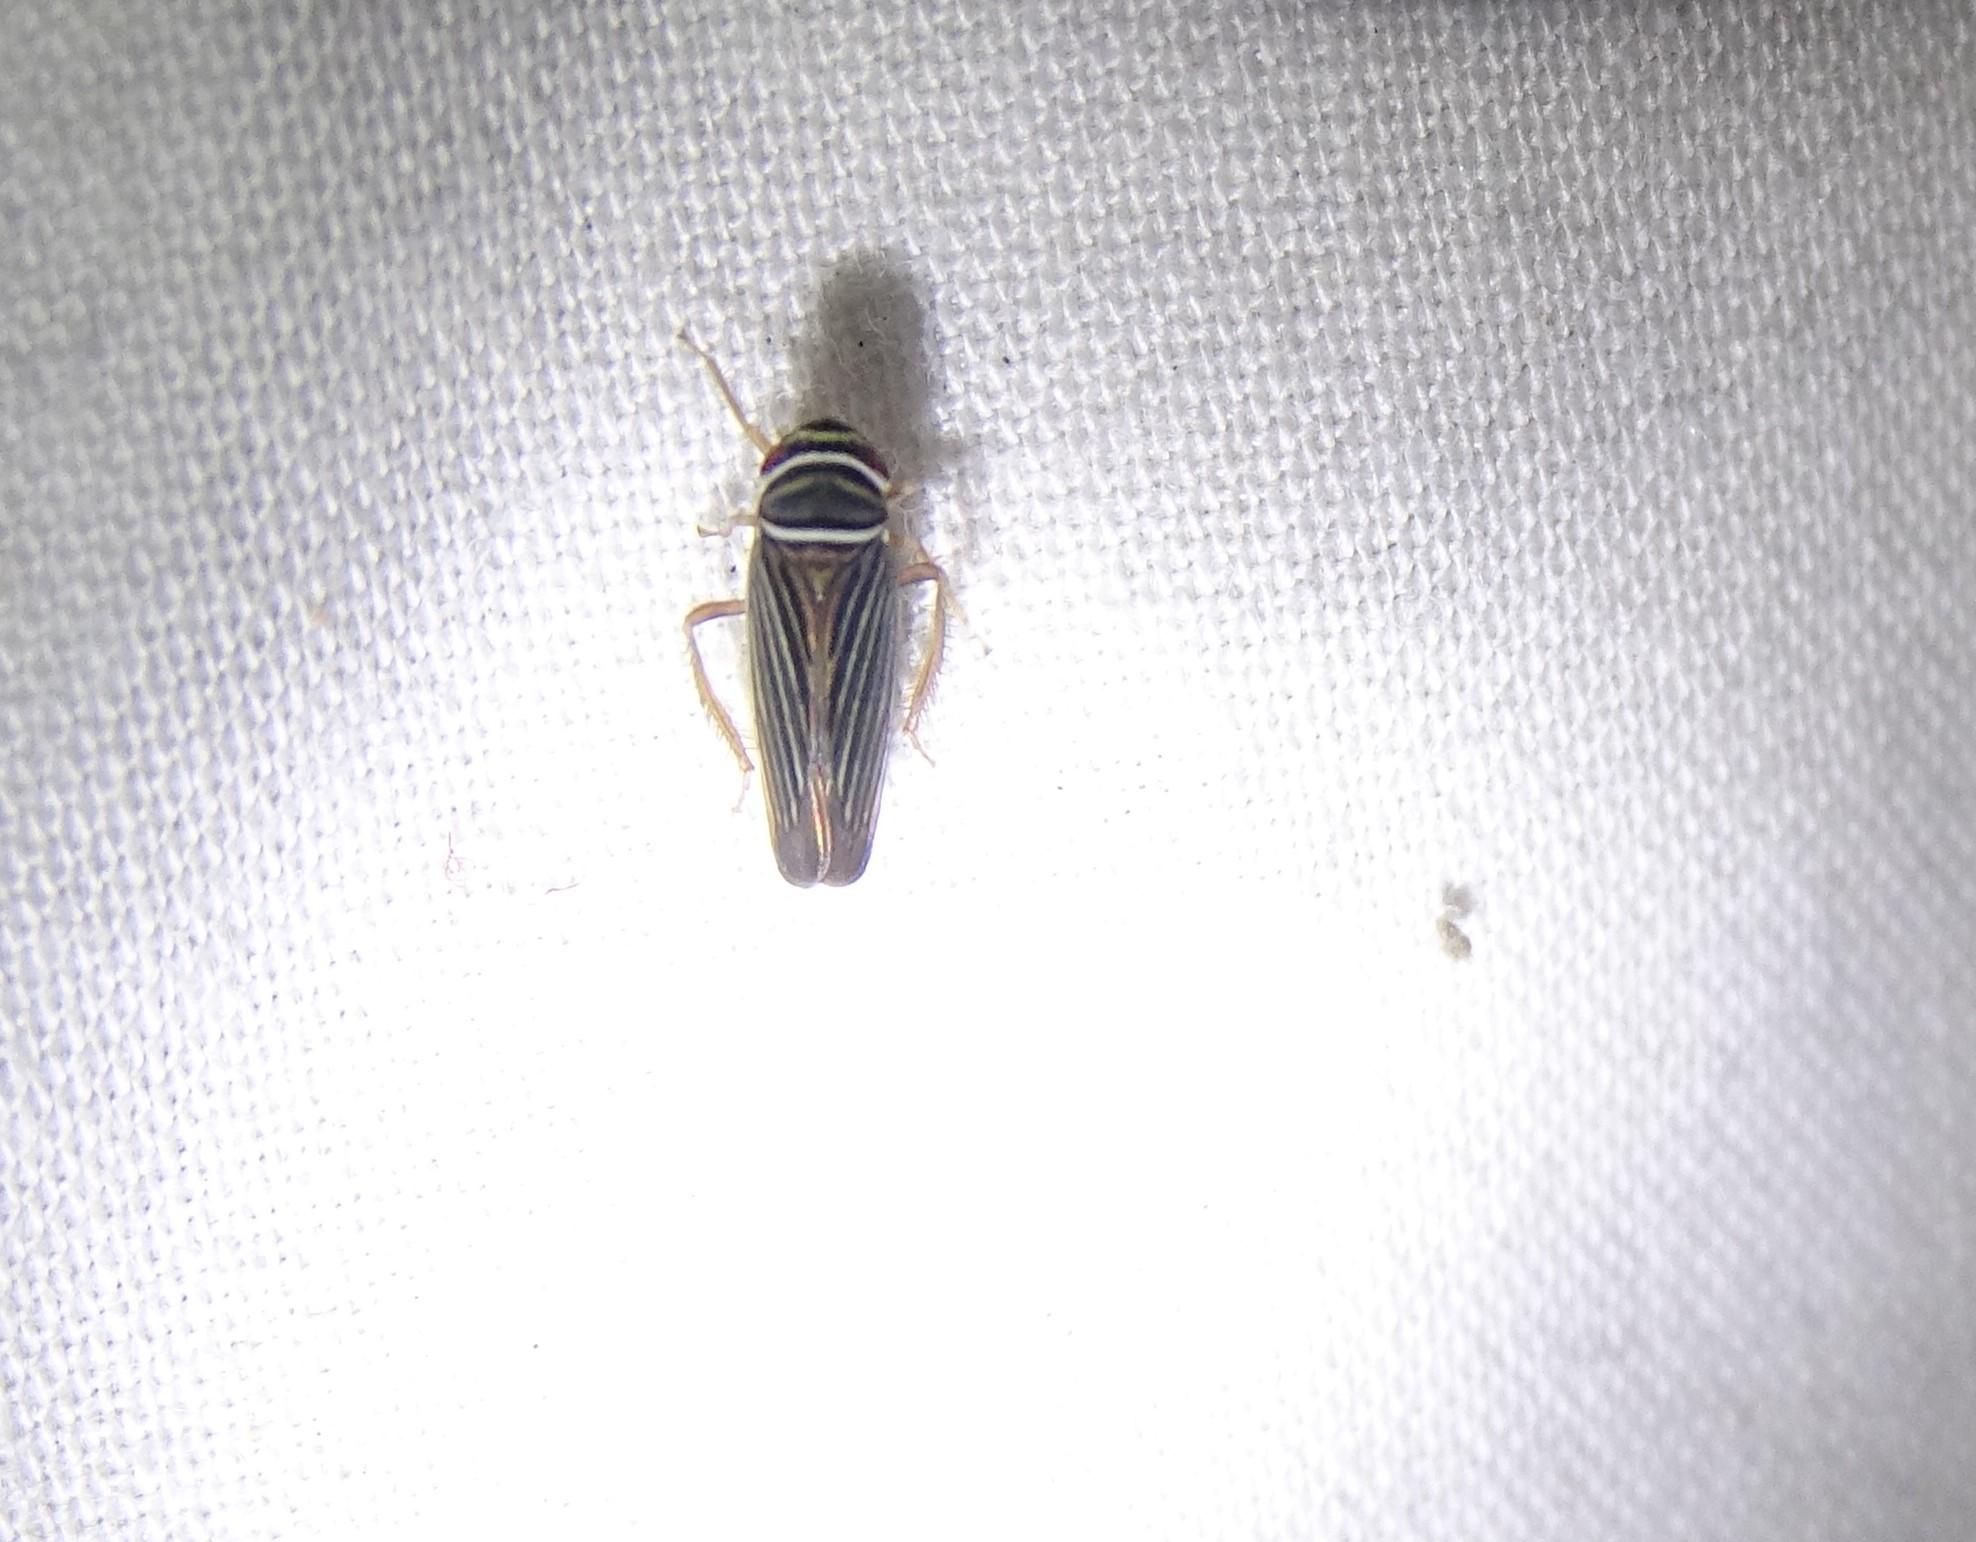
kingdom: Animalia
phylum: Arthropoda
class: Insecta
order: Hemiptera
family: Cicadellidae
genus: Tylozygus
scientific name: Tylozygus bifidus
